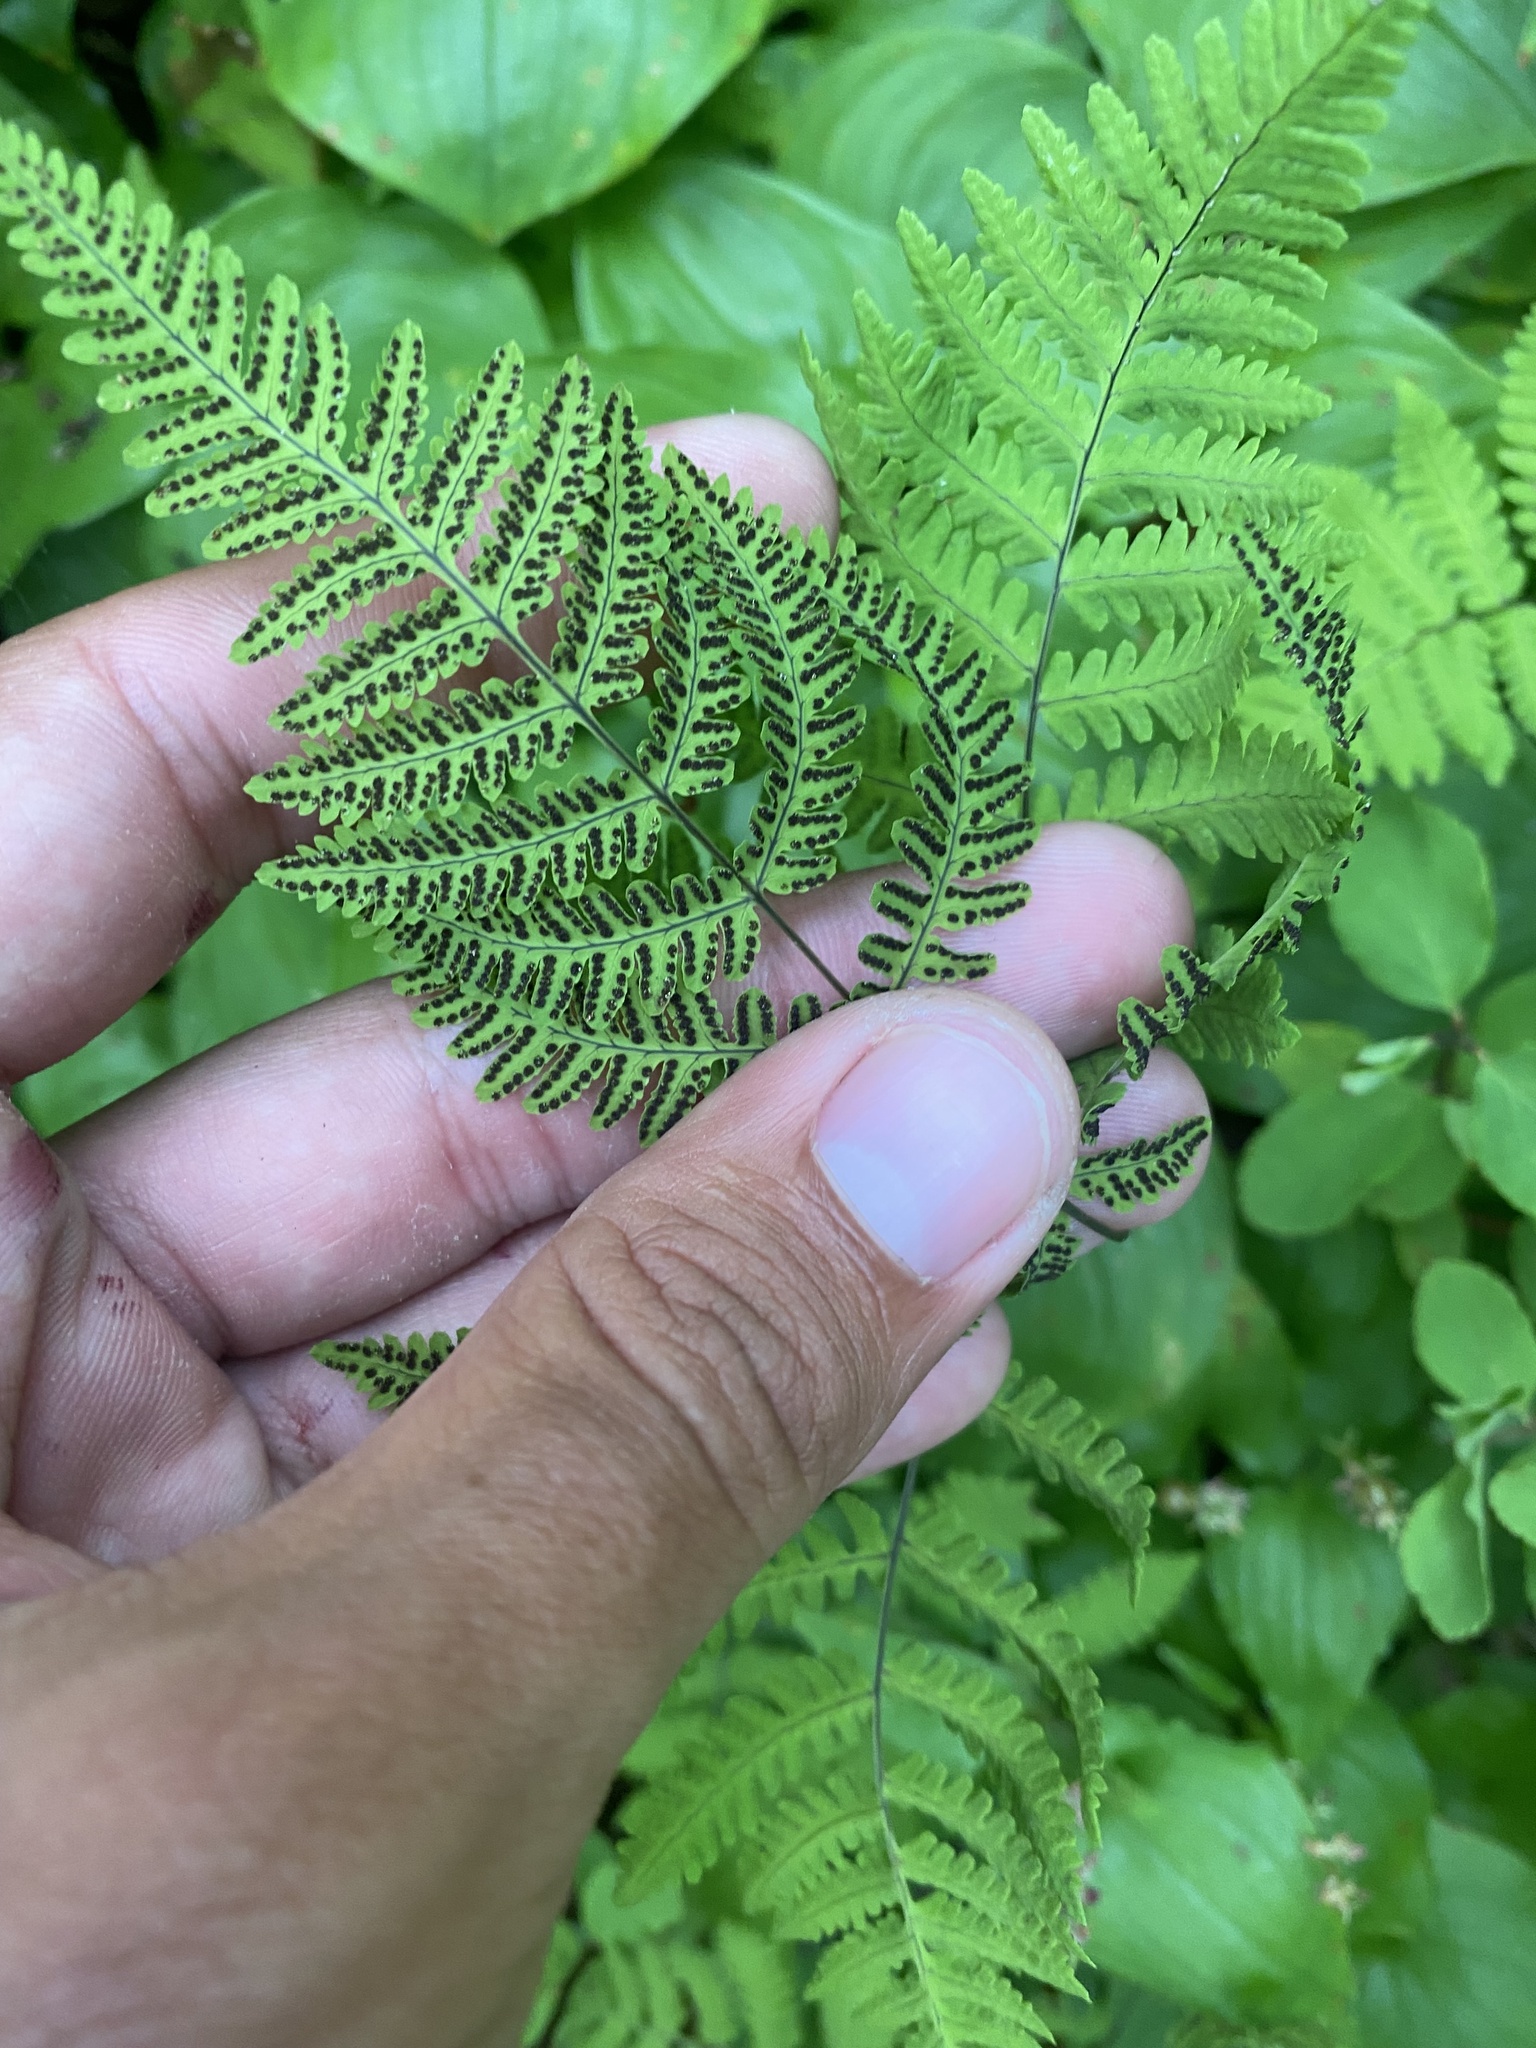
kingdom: Plantae
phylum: Tracheophyta
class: Polypodiopsida
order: Polypodiales
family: Cystopteridaceae
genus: Gymnocarpium
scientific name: Gymnocarpium disjunctum
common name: Western oak fern
